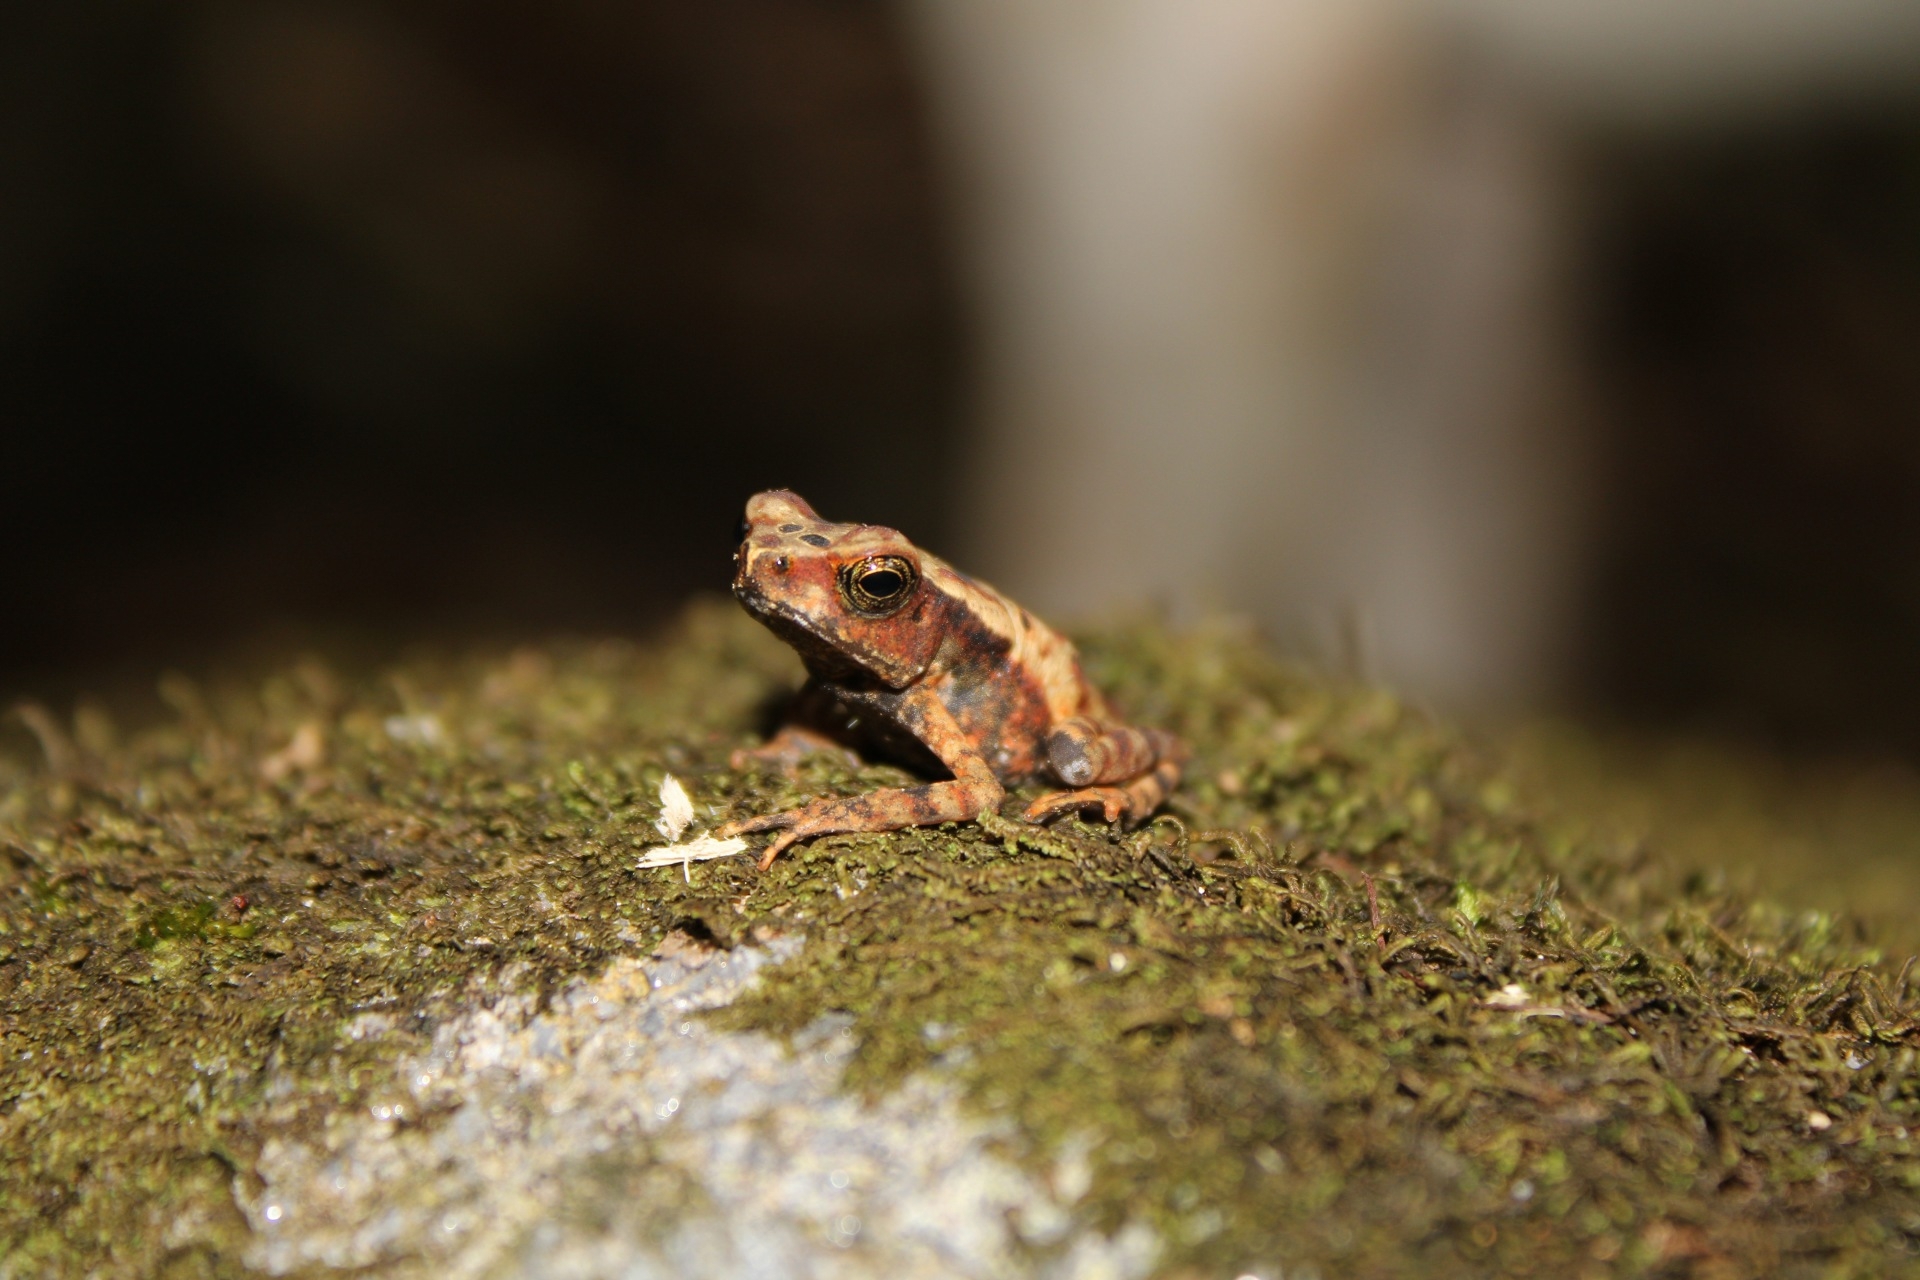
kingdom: Animalia
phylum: Chordata
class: Amphibia
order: Anura
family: Bufonidae
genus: Rhaebo
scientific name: Rhaebo haematiticus
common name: Truando toad
